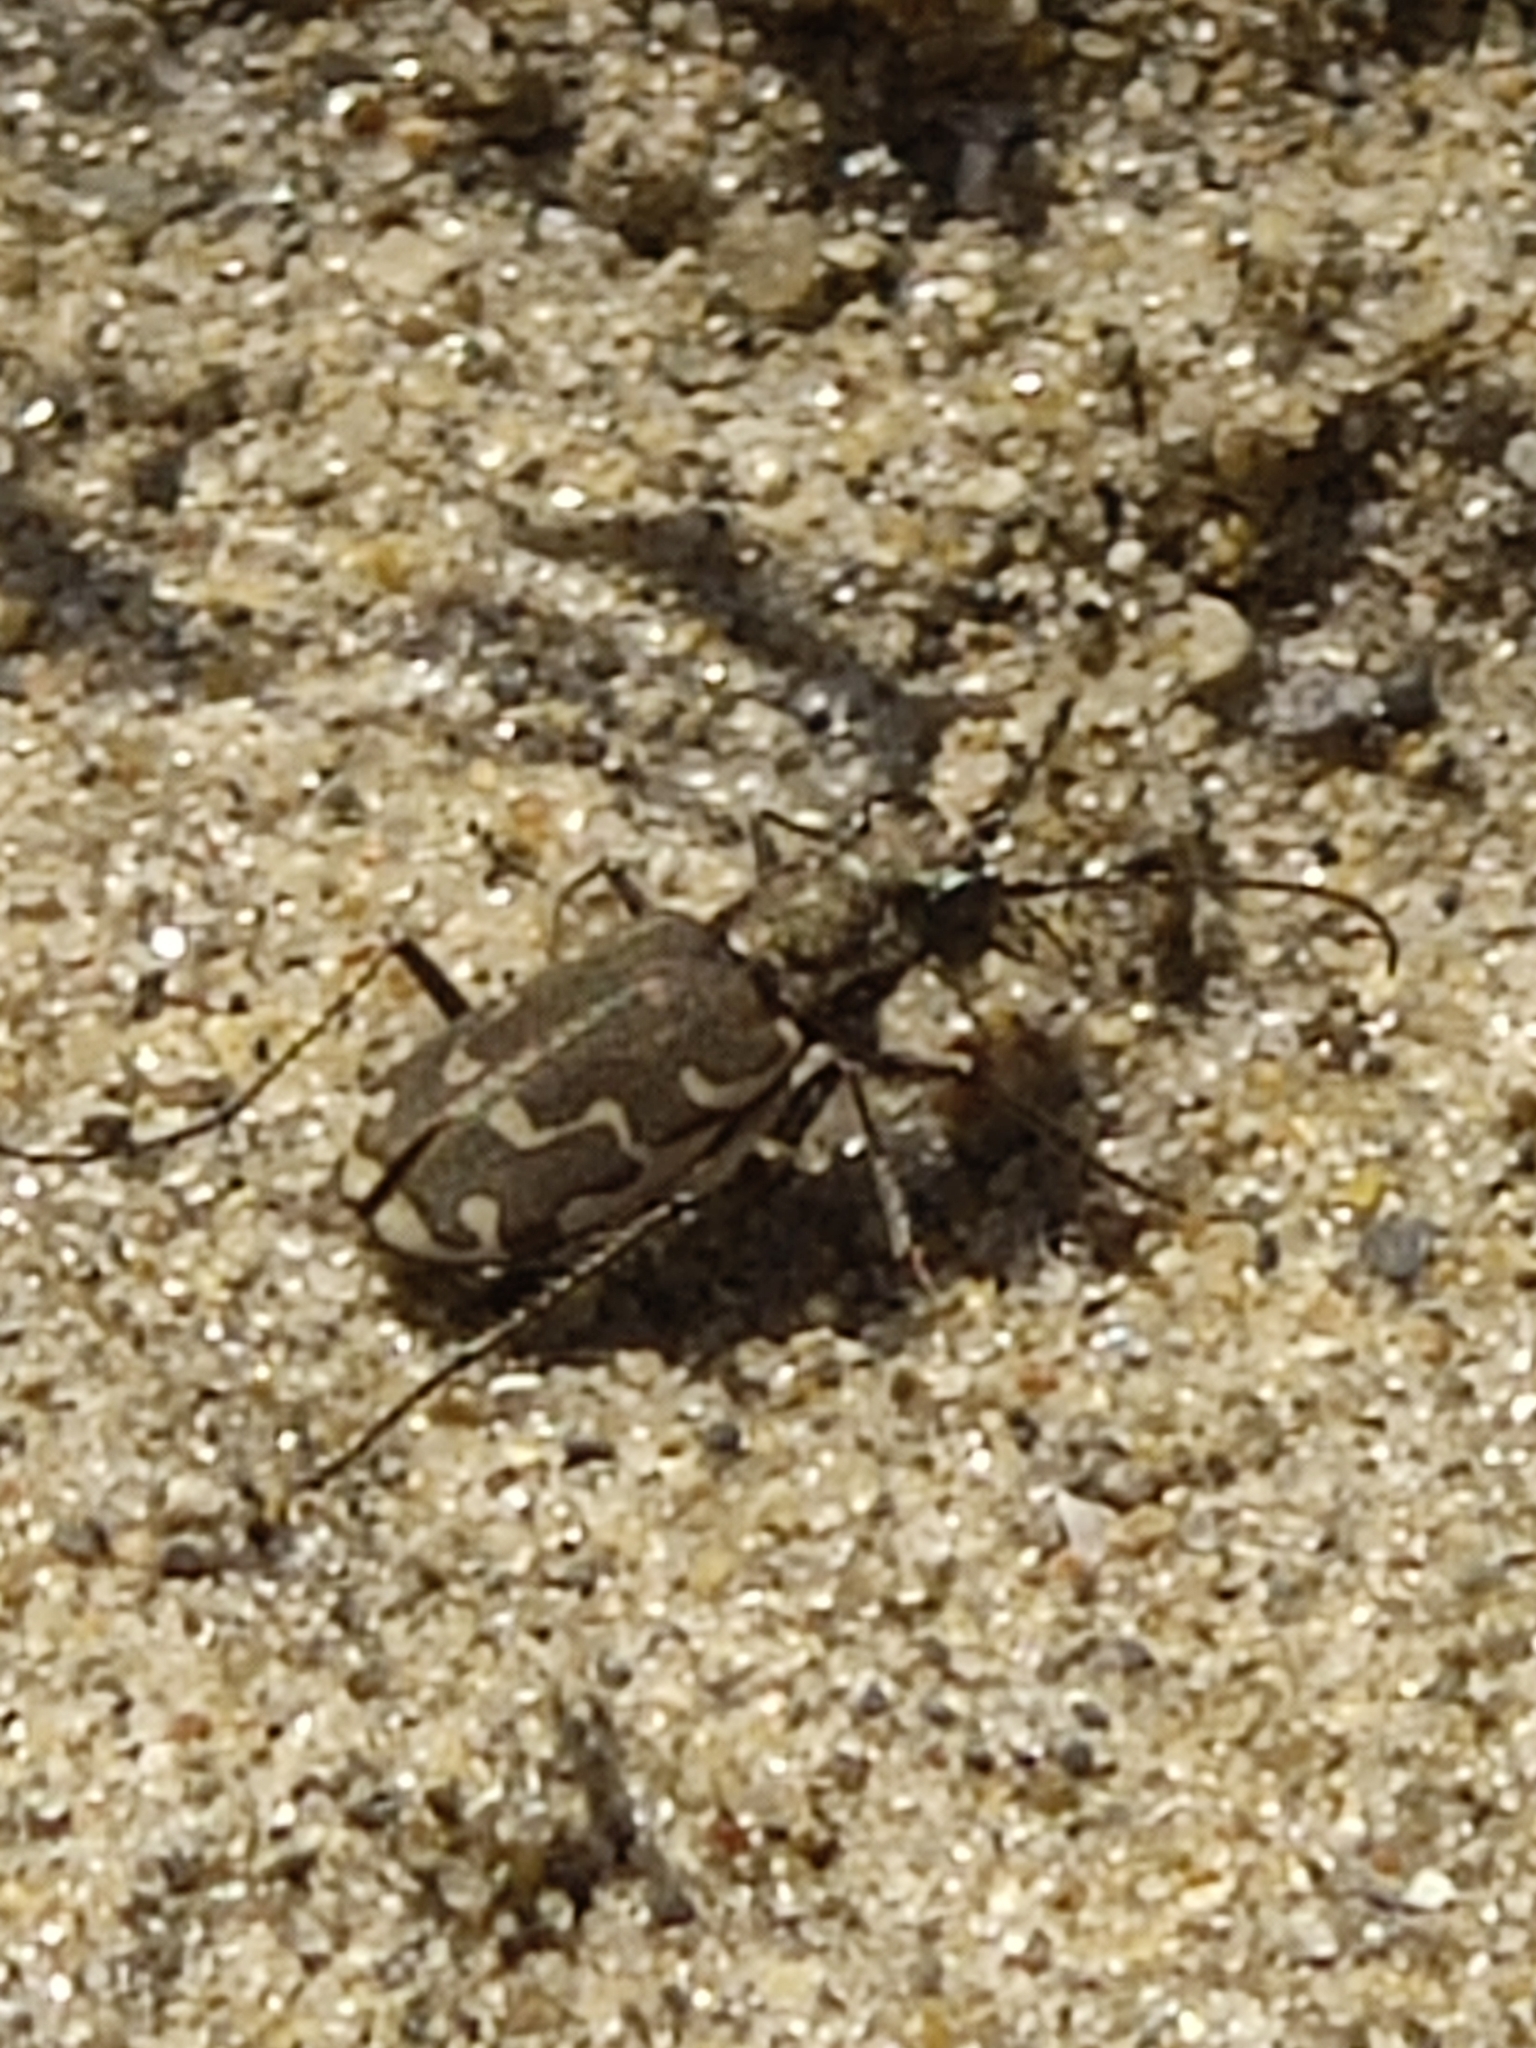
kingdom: Animalia
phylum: Arthropoda
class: Insecta
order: Coleoptera
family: Carabidae
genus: Cicindela
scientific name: Cicindela repanda
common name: Bronzed tiger beetle
